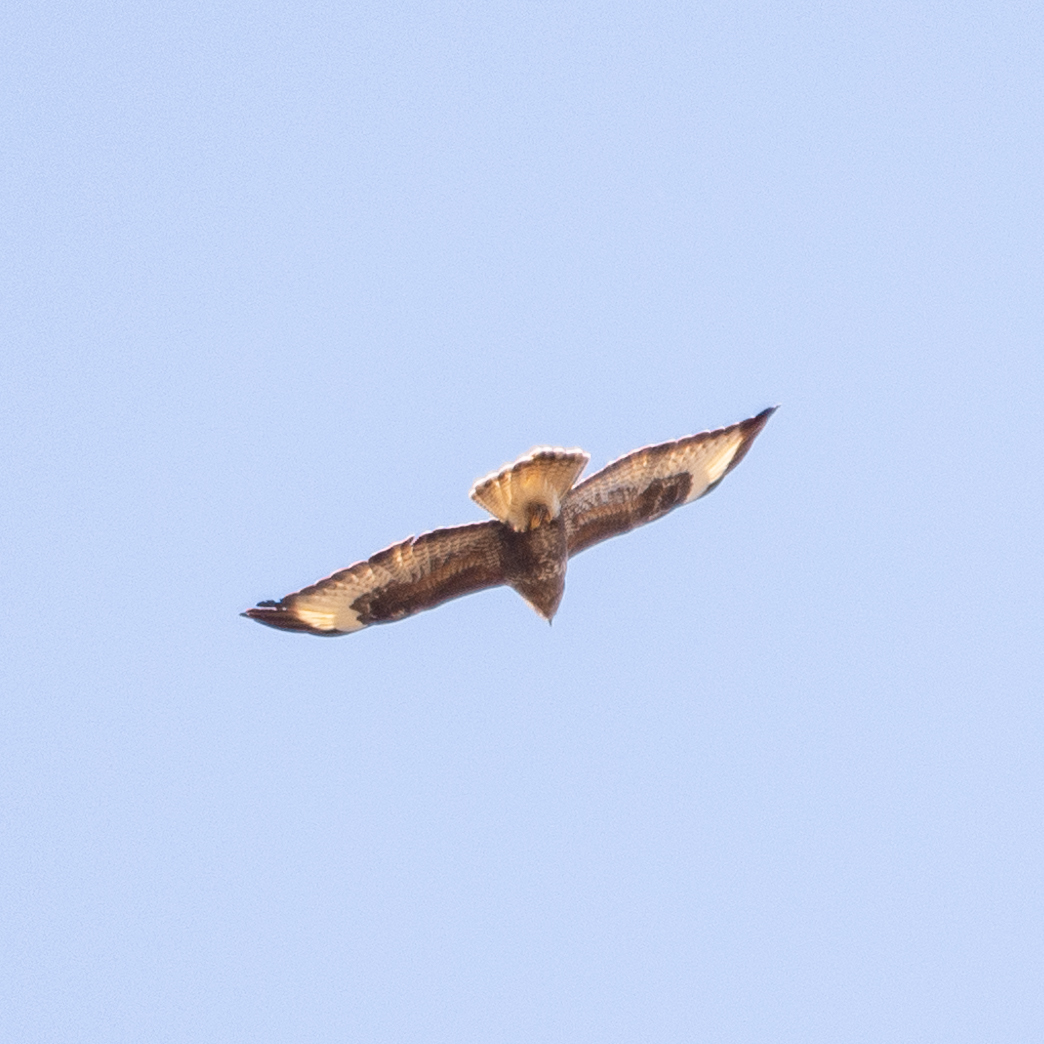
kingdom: Animalia
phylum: Chordata
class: Aves
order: Accipitriformes
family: Accipitridae
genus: Buteo
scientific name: Buteo buteo
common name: Common buzzard
